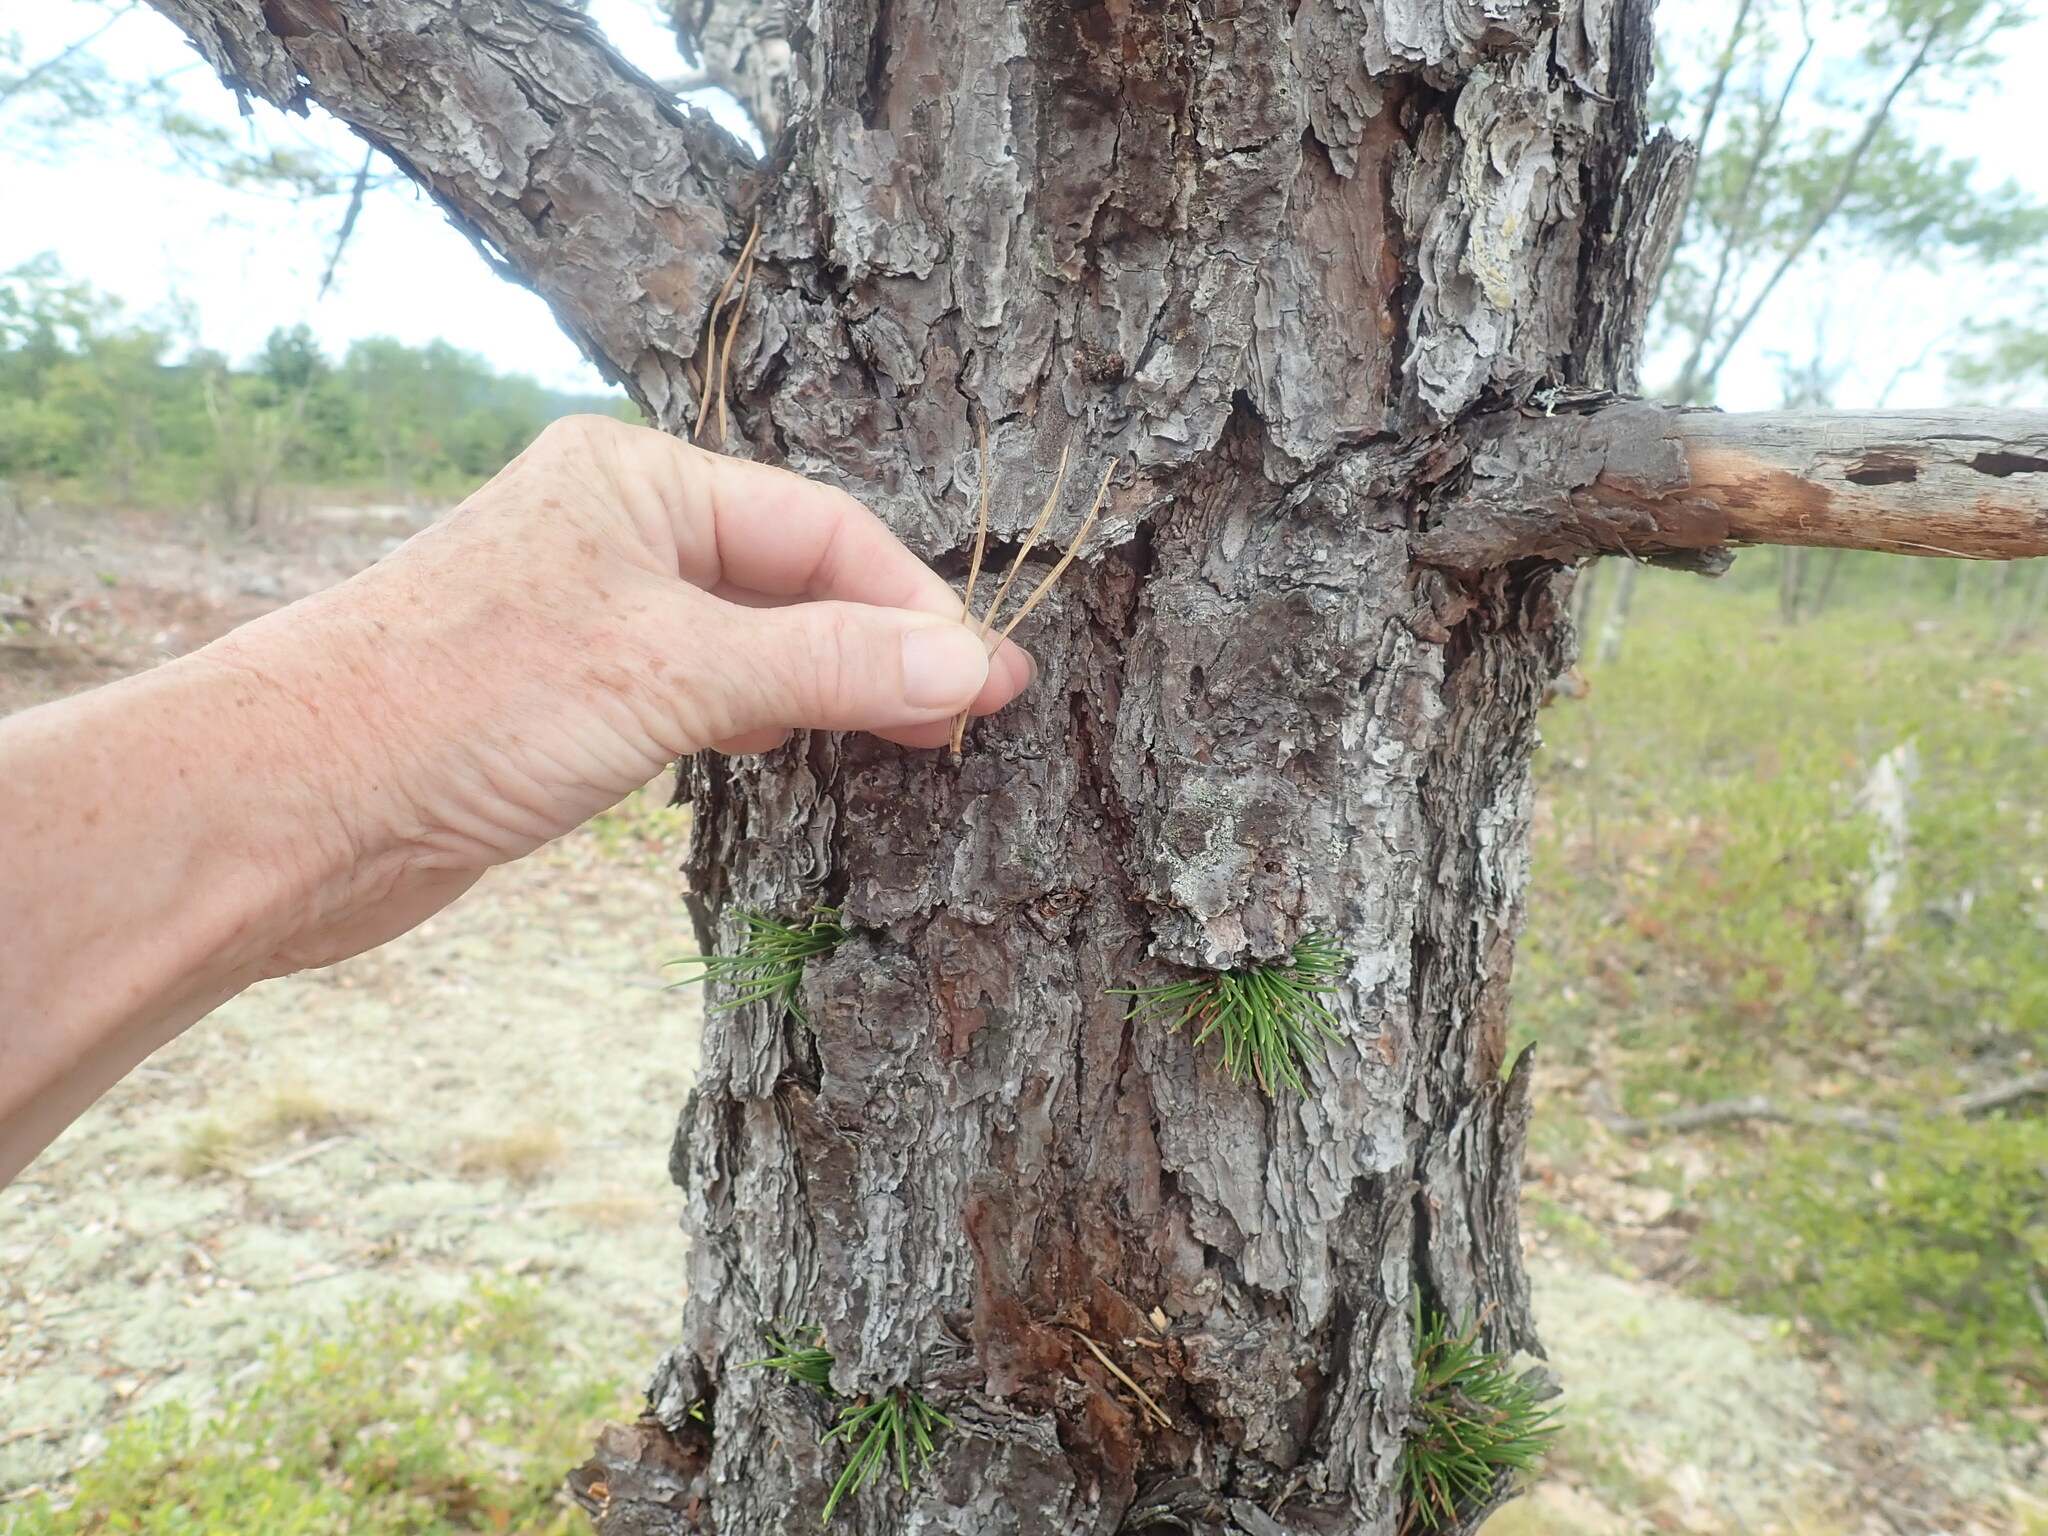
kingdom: Plantae
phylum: Tracheophyta
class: Pinopsida
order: Pinales
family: Pinaceae
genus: Pinus
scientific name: Pinus rigida
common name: Pitch pine
